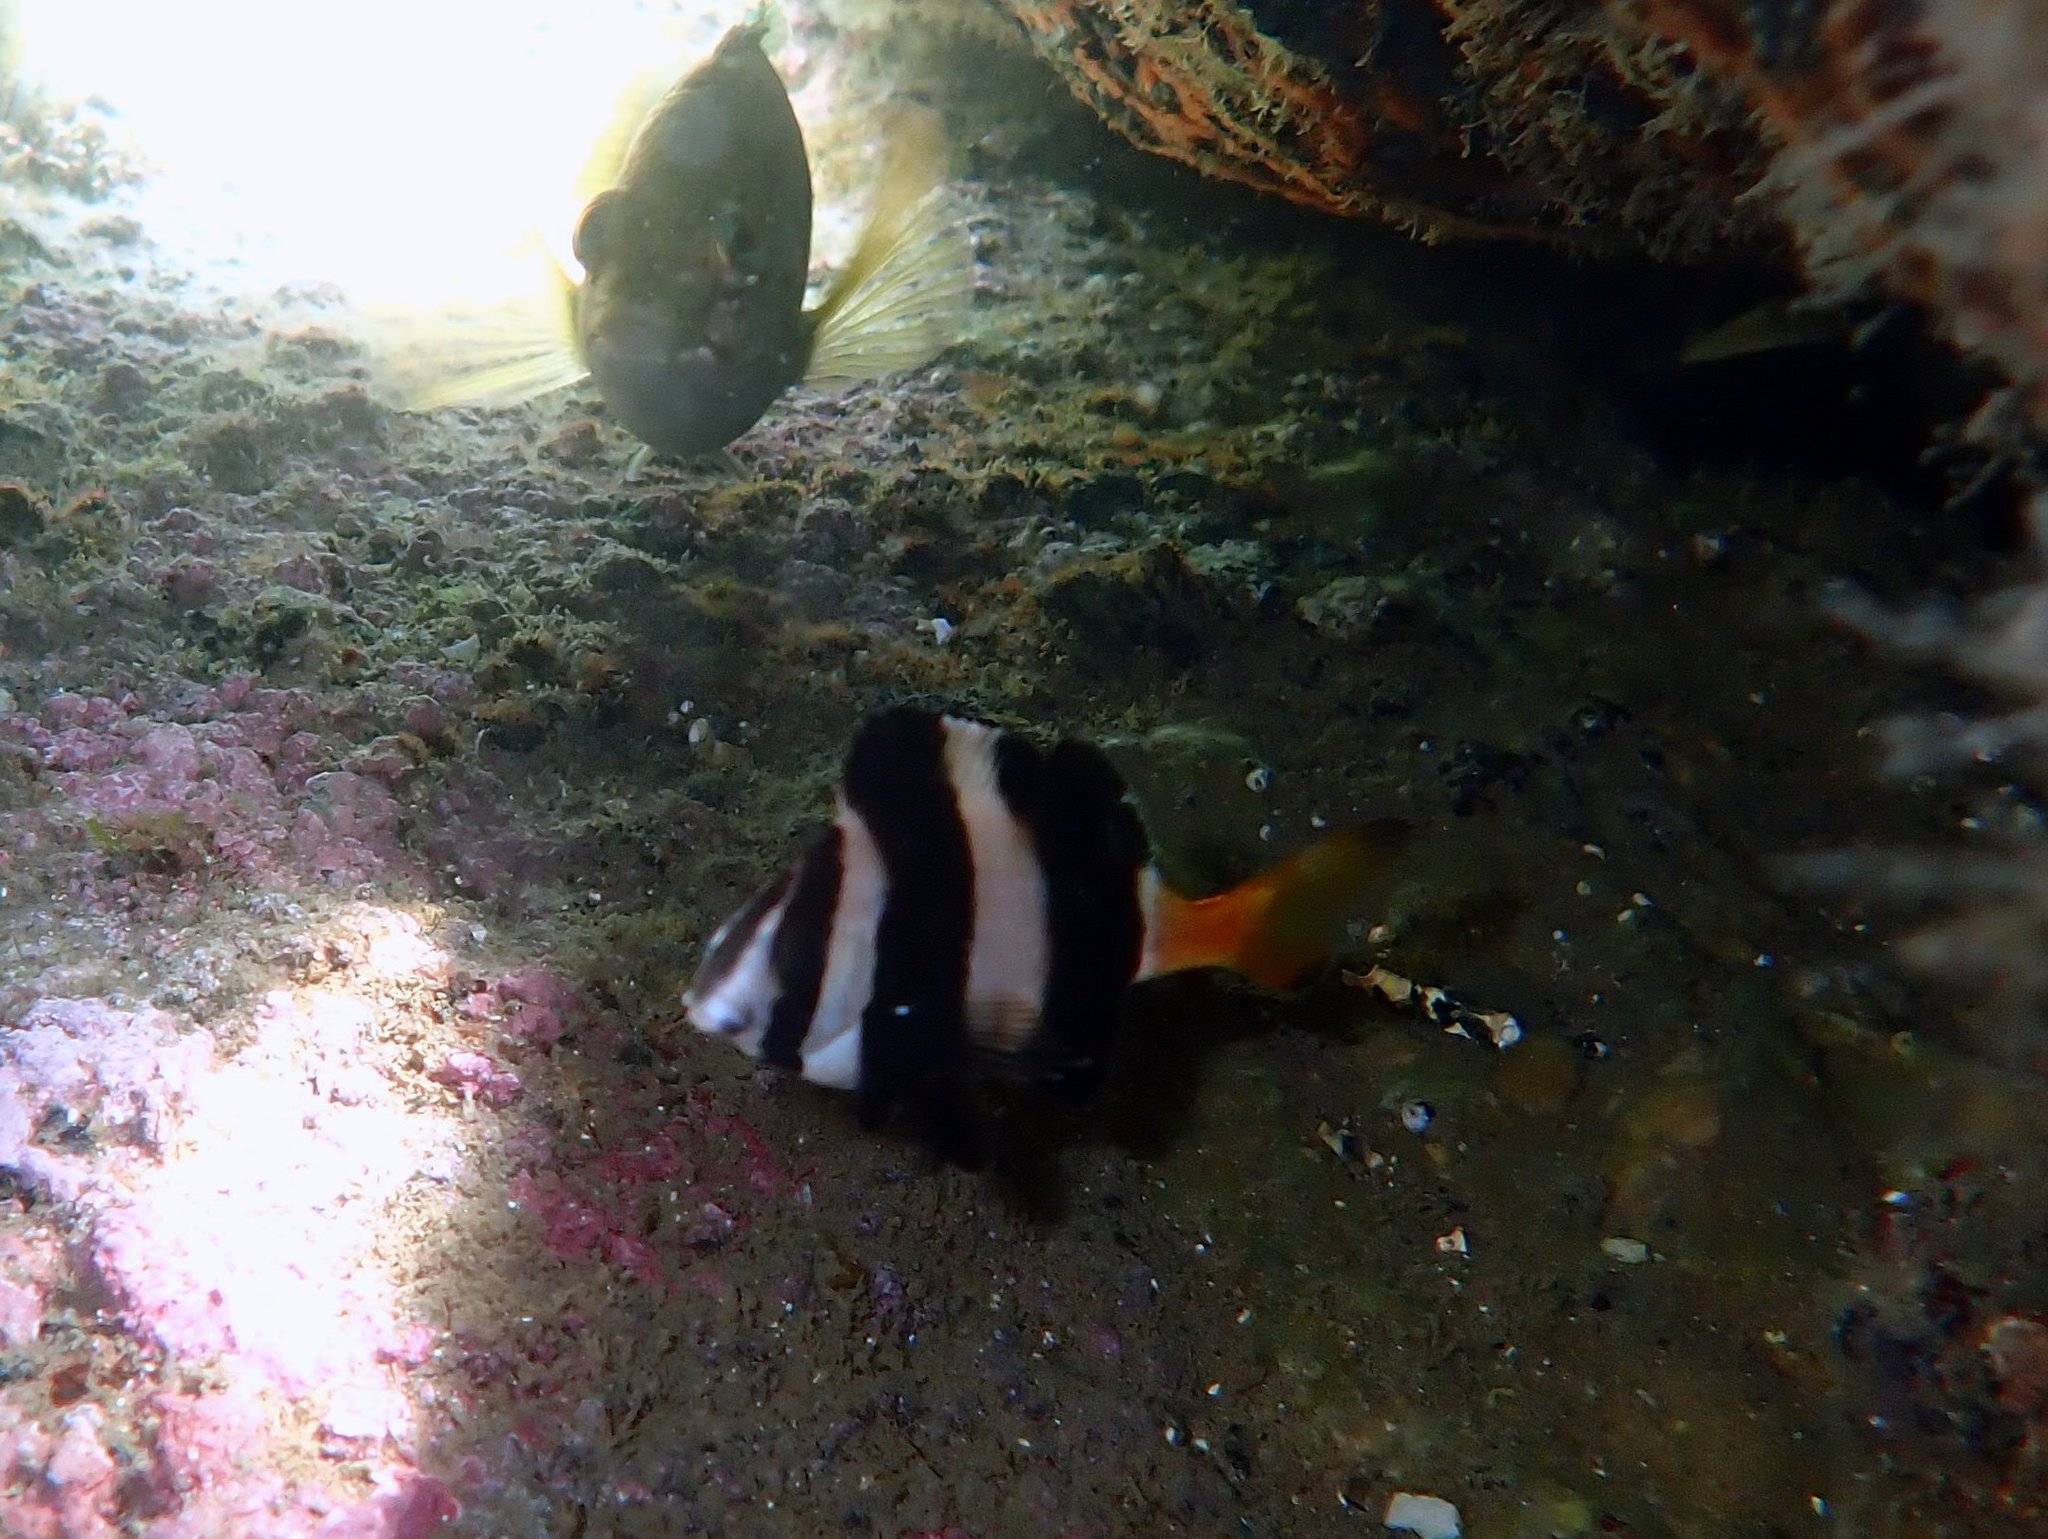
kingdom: Animalia
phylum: Chordata
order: Perciformes
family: Latridae
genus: Pseudogoniistius
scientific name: Pseudogoniistius nigripes
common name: Black-striped morwong
